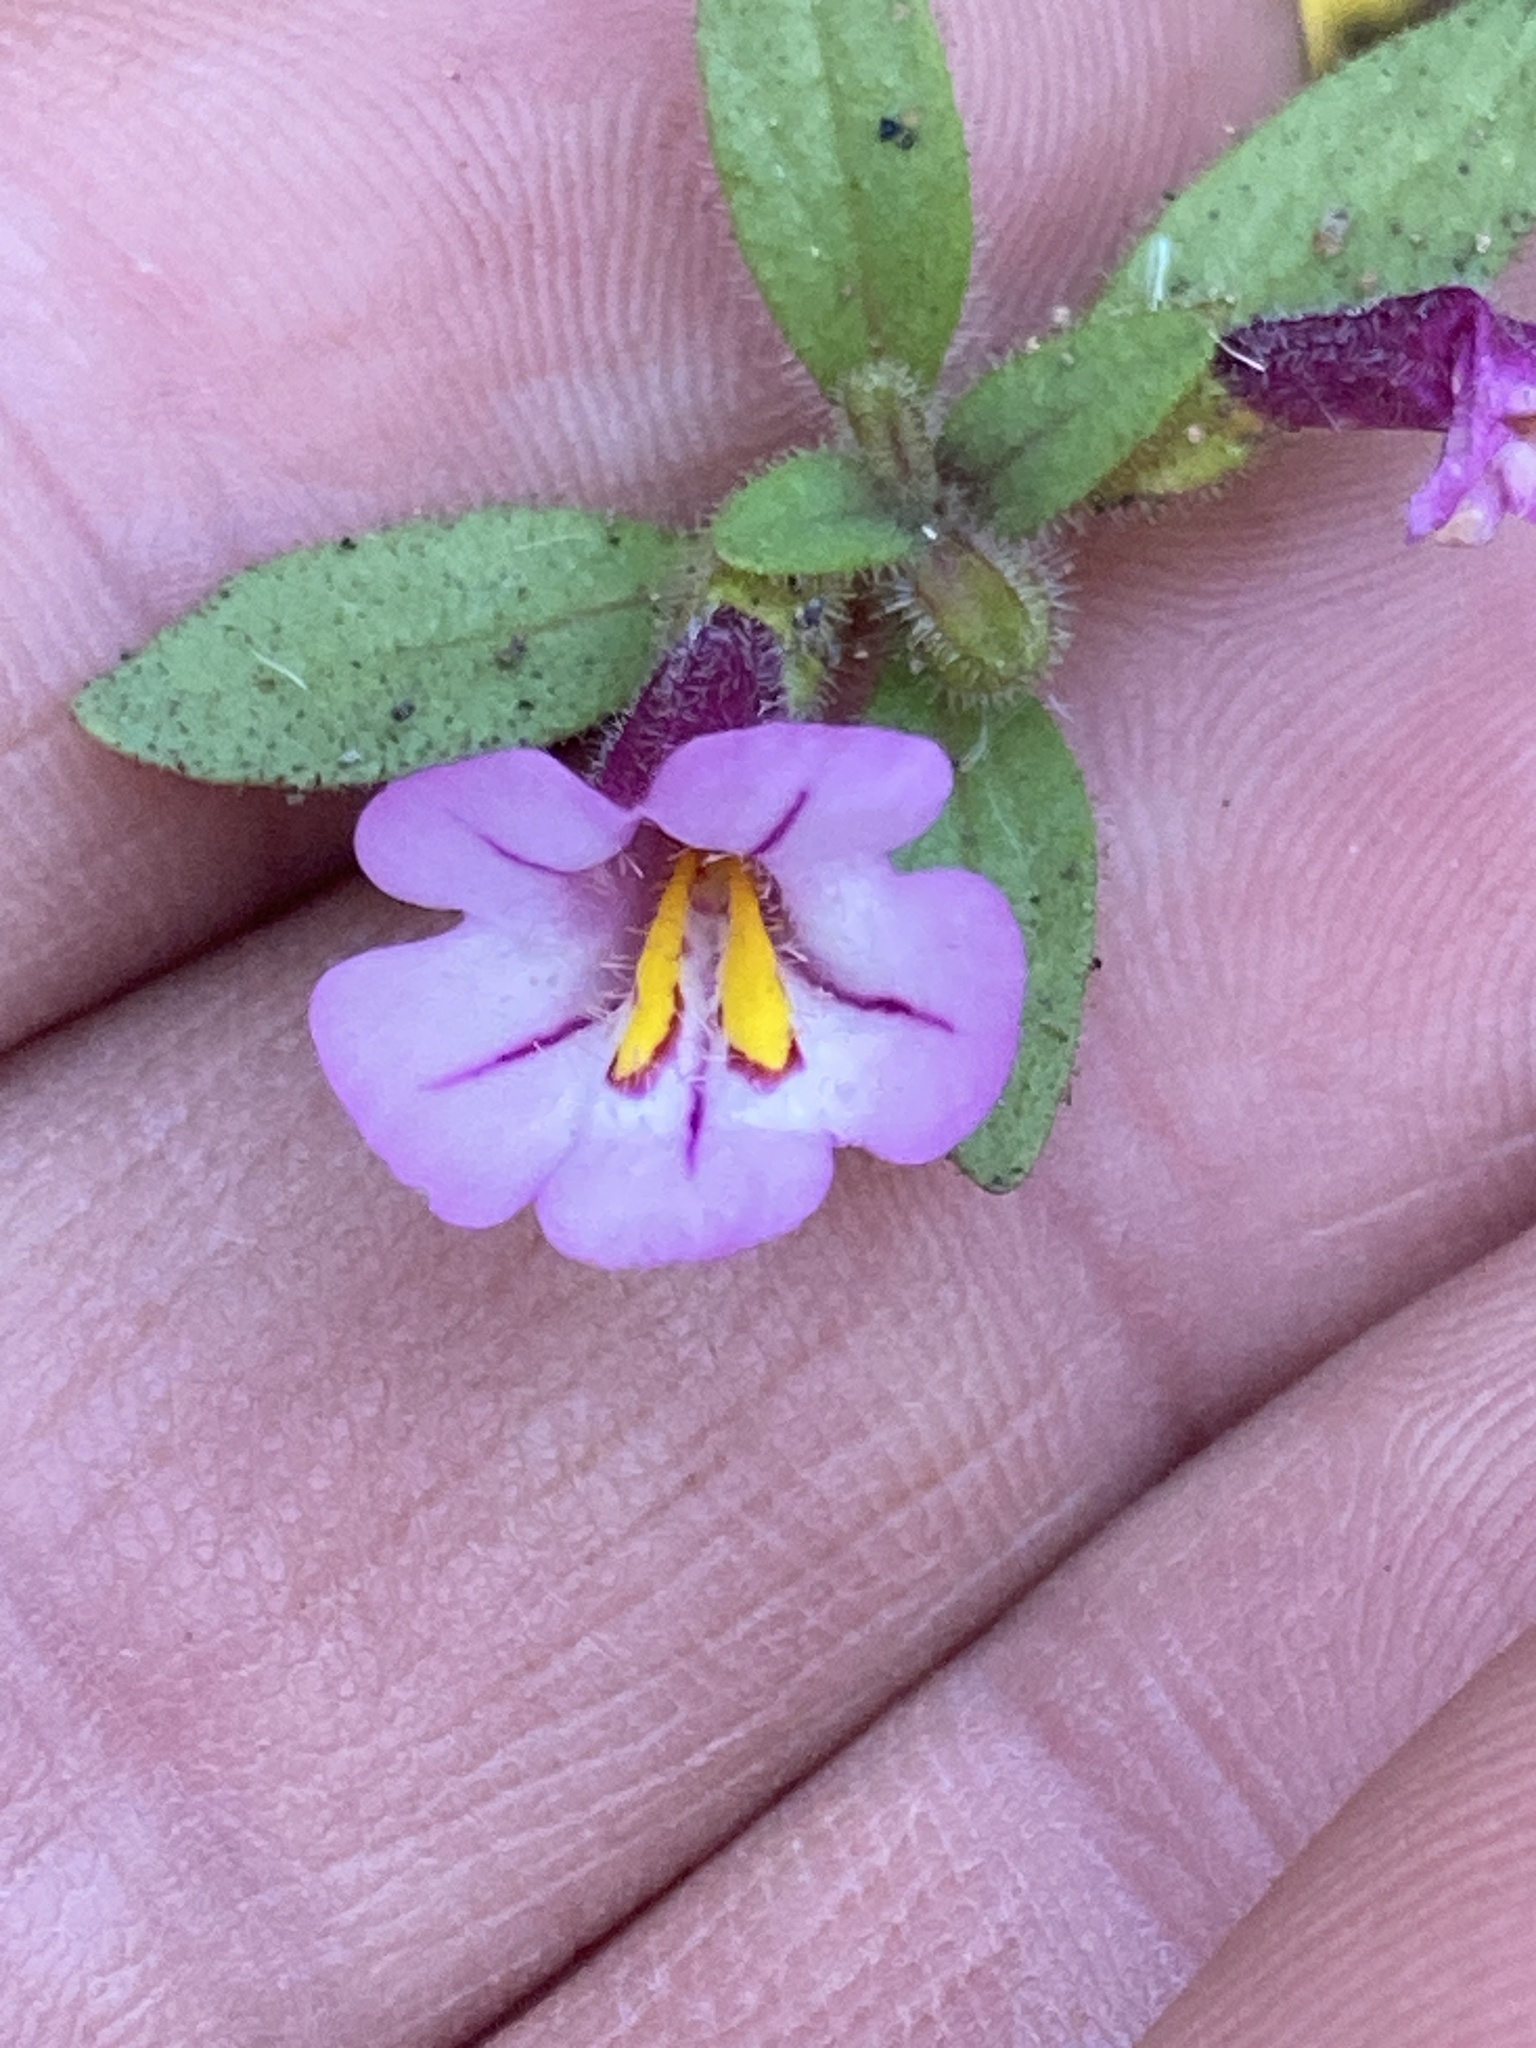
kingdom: Plantae
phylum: Tracheophyta
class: Magnoliopsida
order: Lamiales
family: Phrymaceae
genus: Diplacus
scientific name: Diplacus torreyi
